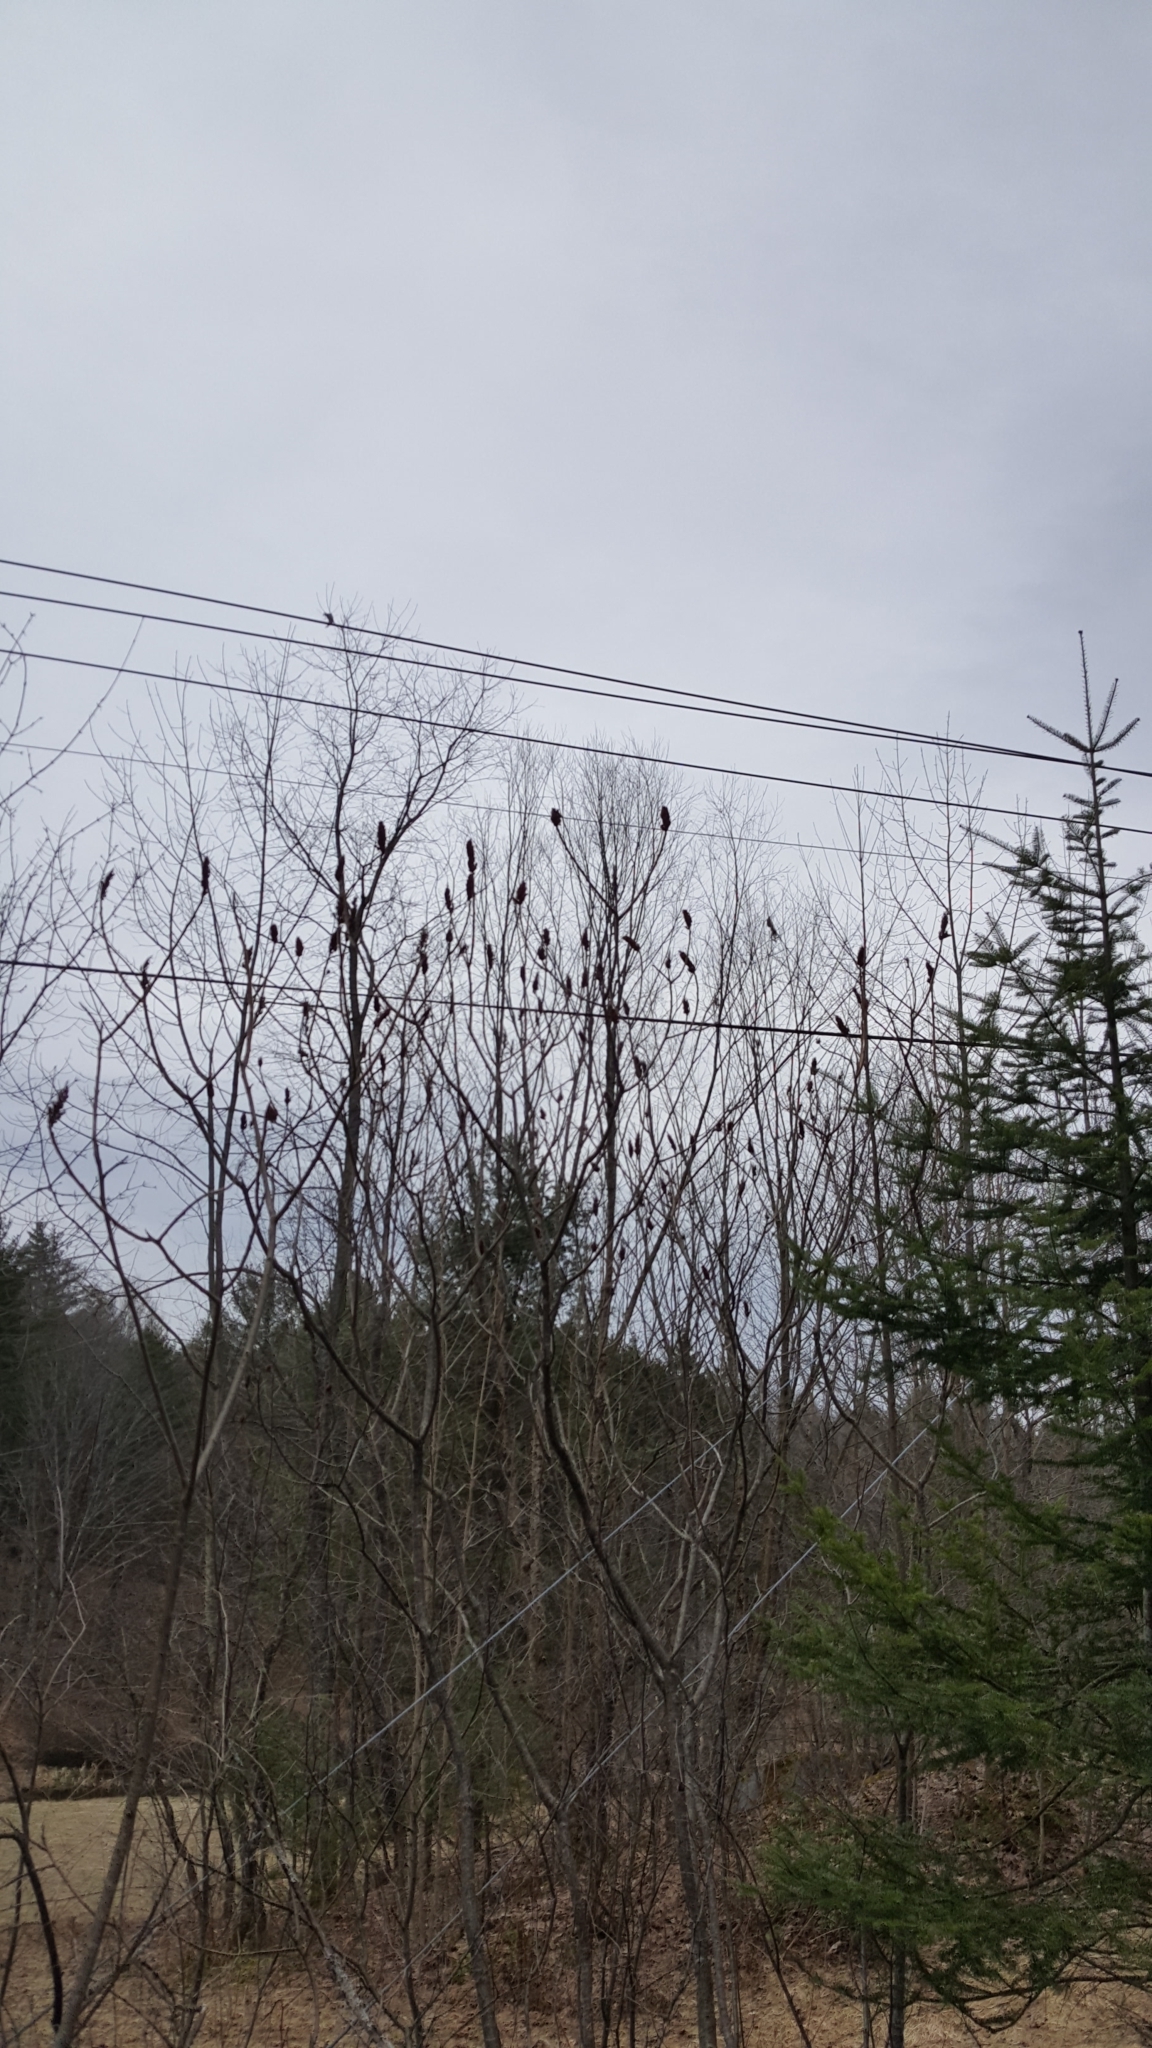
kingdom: Plantae
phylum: Tracheophyta
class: Magnoliopsida
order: Sapindales
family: Anacardiaceae
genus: Rhus
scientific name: Rhus typhina
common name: Staghorn sumac
